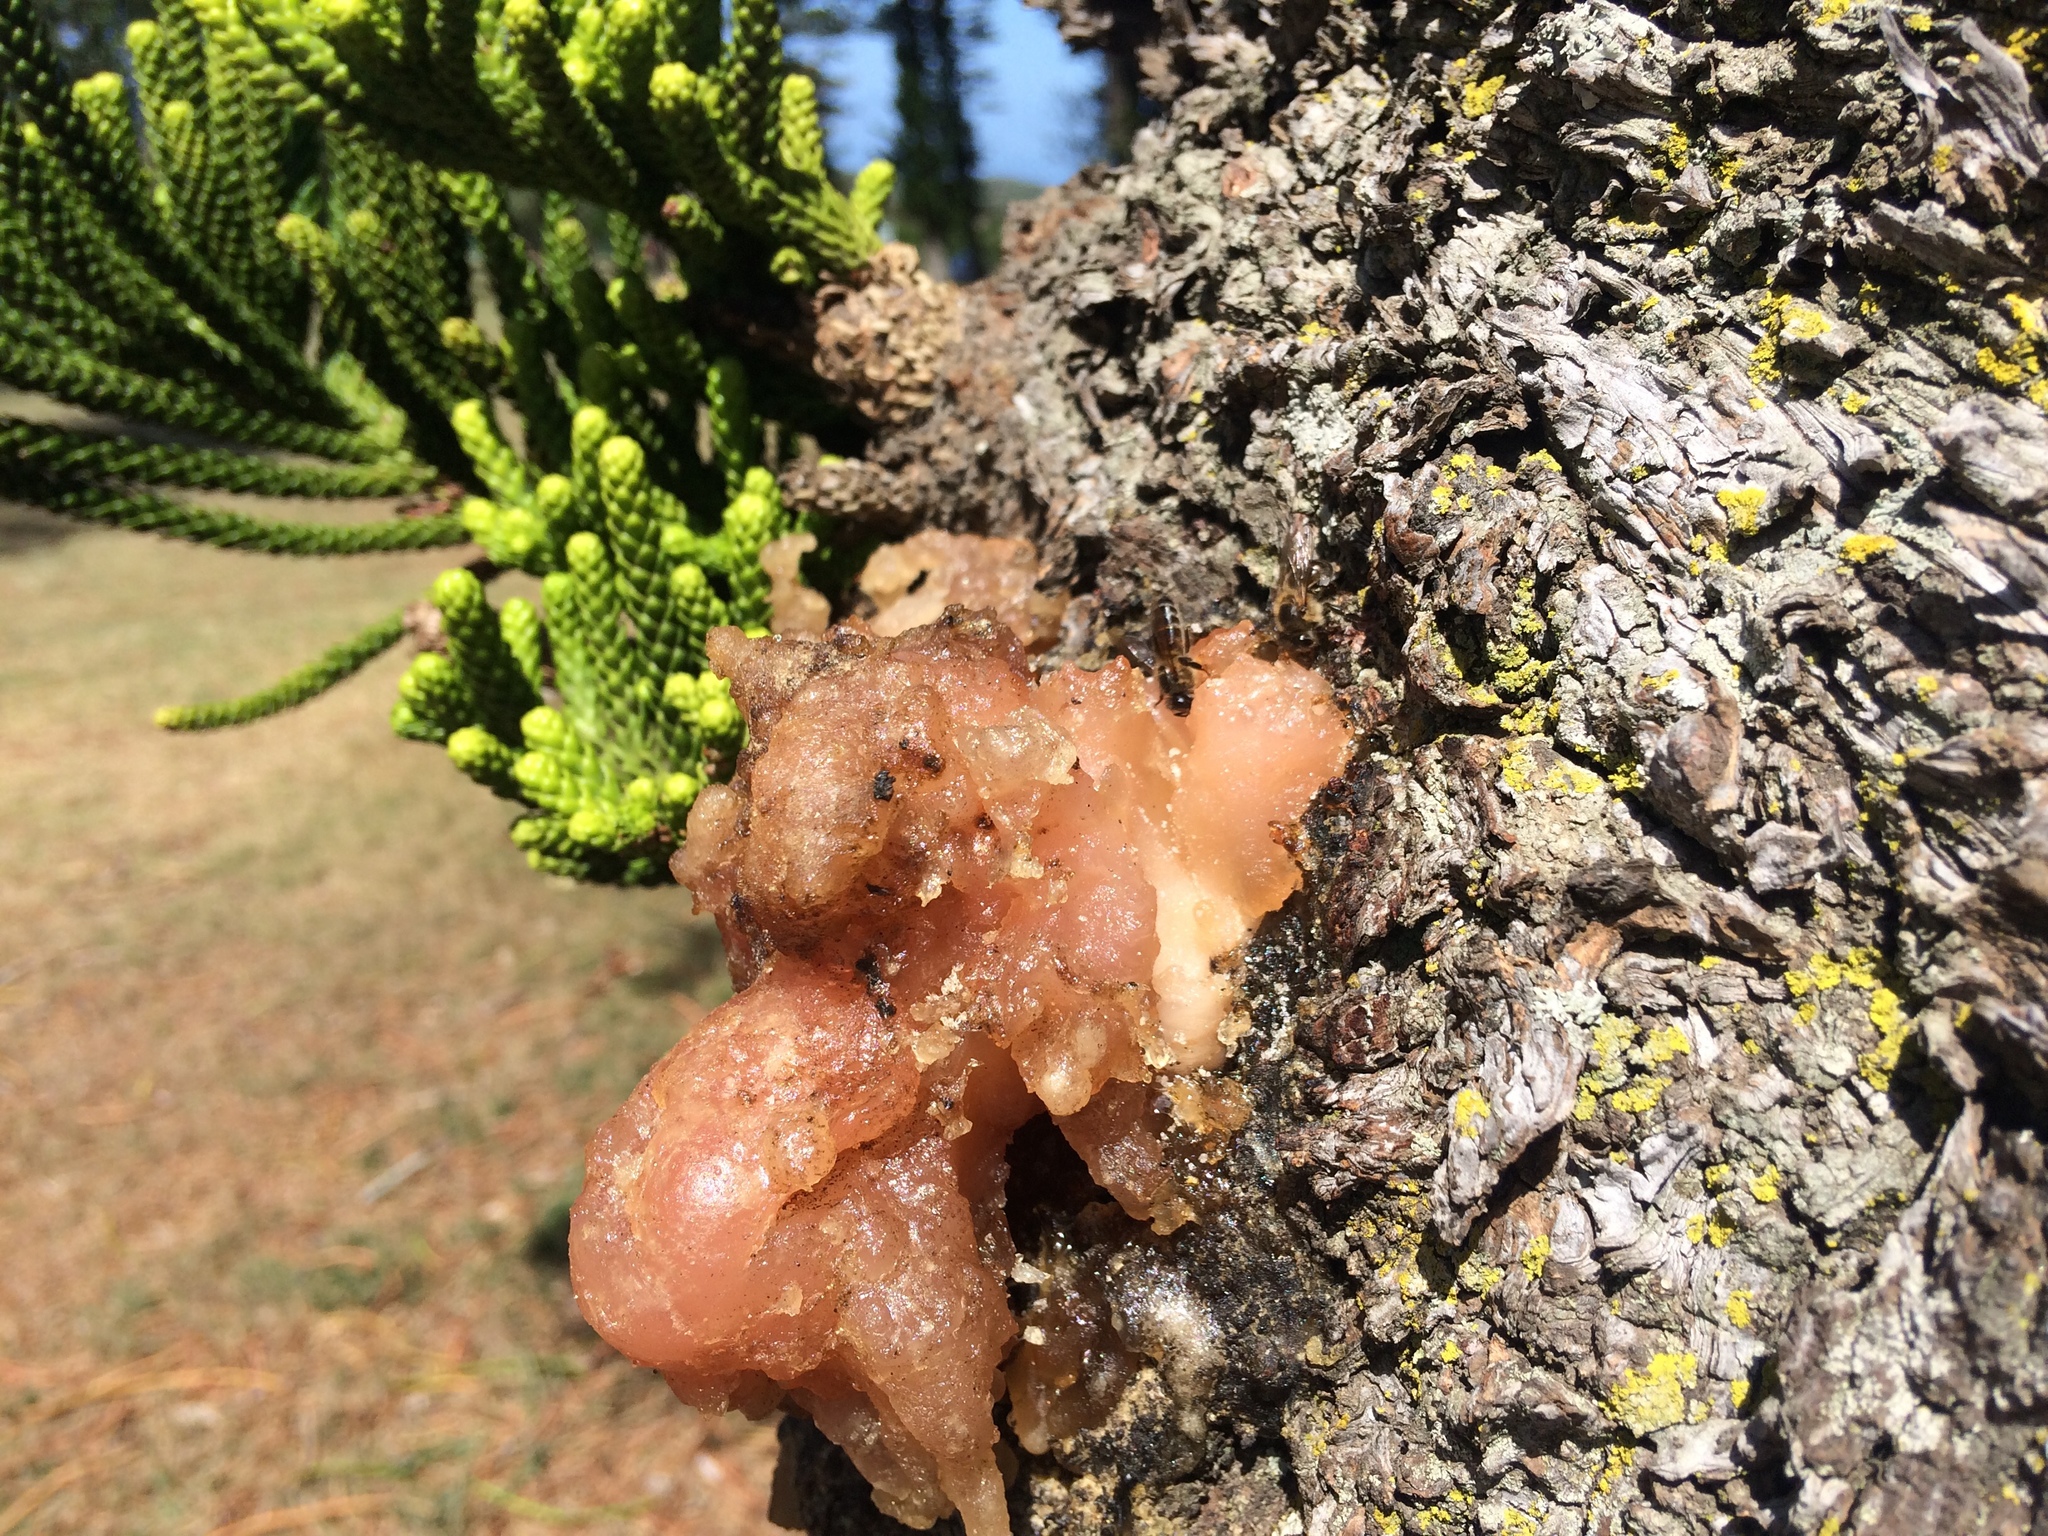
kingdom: Animalia
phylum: Arthropoda
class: Insecta
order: Hymenoptera
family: Apidae
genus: Apis
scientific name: Apis mellifera
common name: Honey bee
